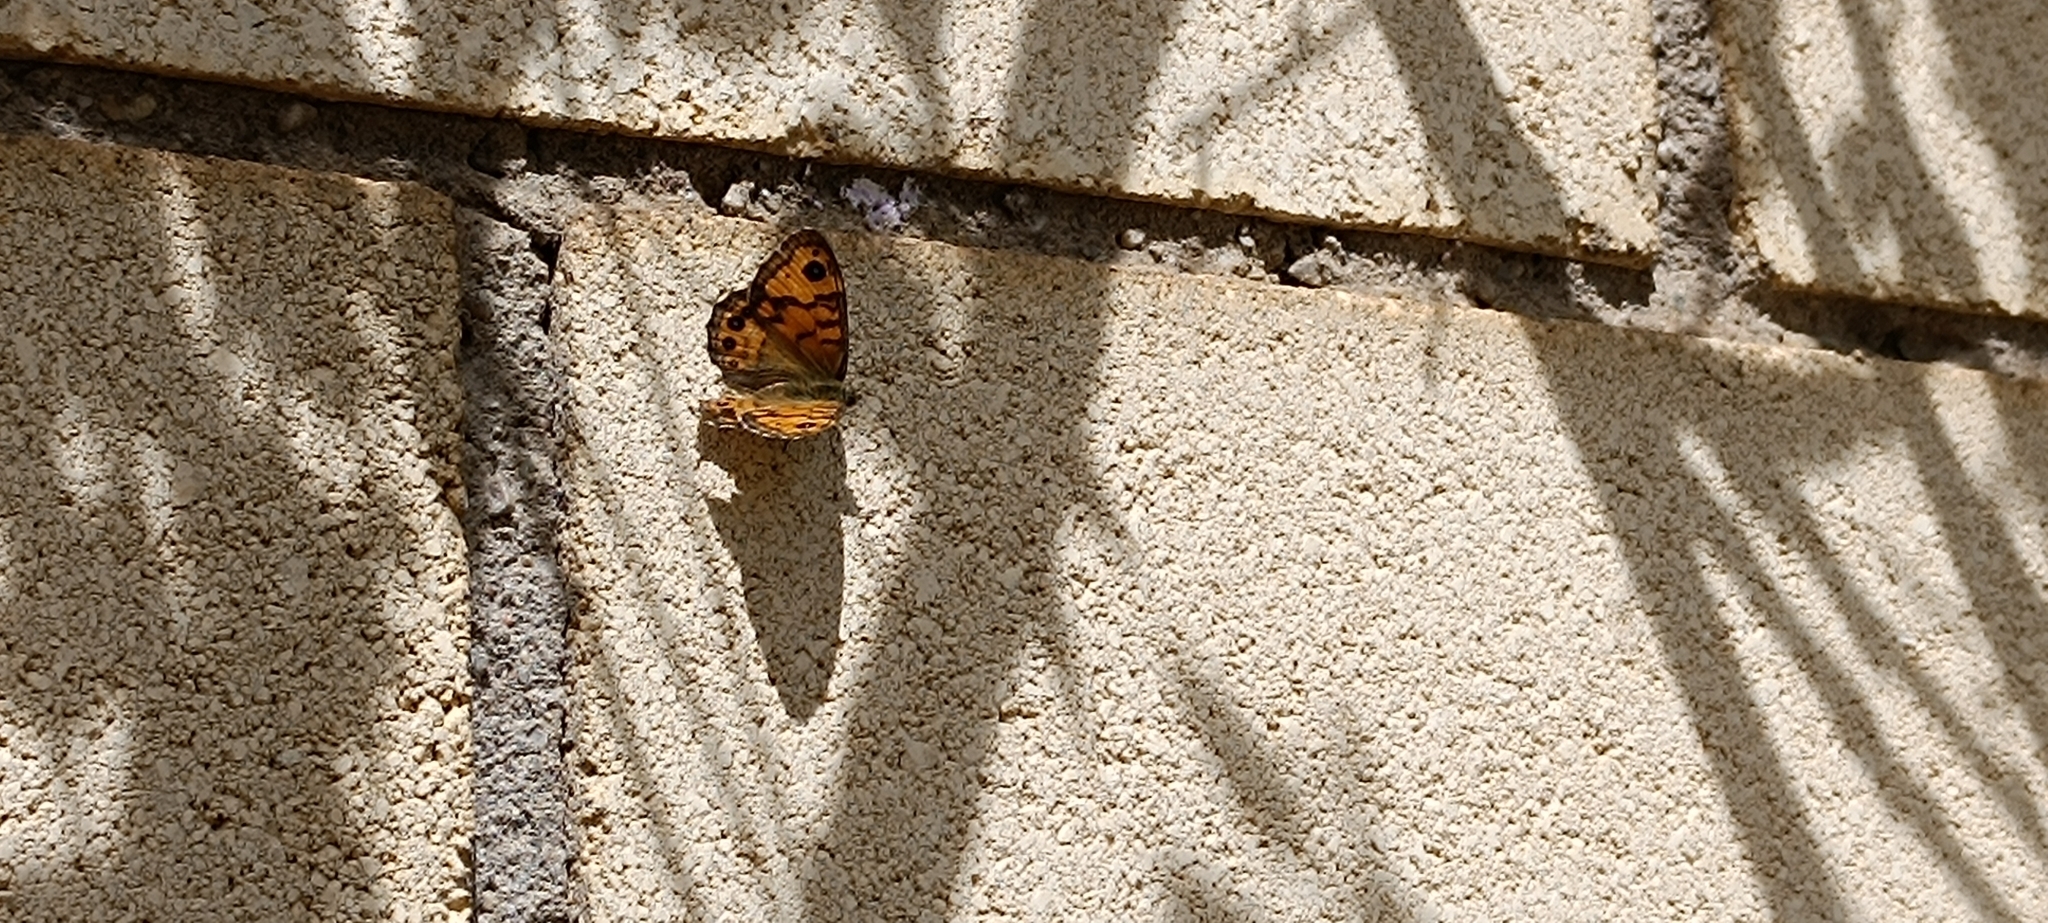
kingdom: Animalia
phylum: Arthropoda
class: Insecta
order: Lepidoptera
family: Nymphalidae
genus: Pararge
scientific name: Pararge Lasiommata megera
